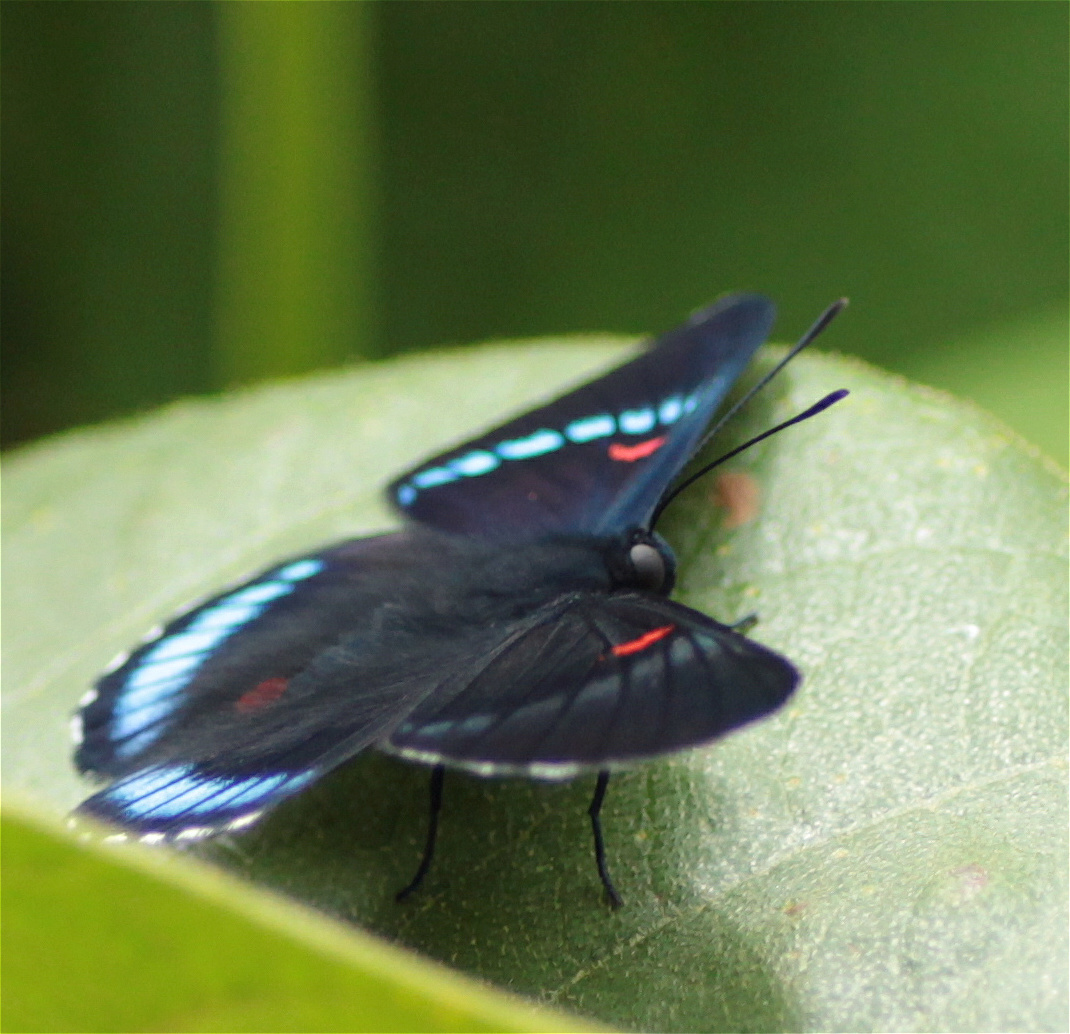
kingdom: Animalia
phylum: Arthropoda
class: Insecta
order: Lepidoptera
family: Lycaenidae
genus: Necyria
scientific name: Necyria bellona
